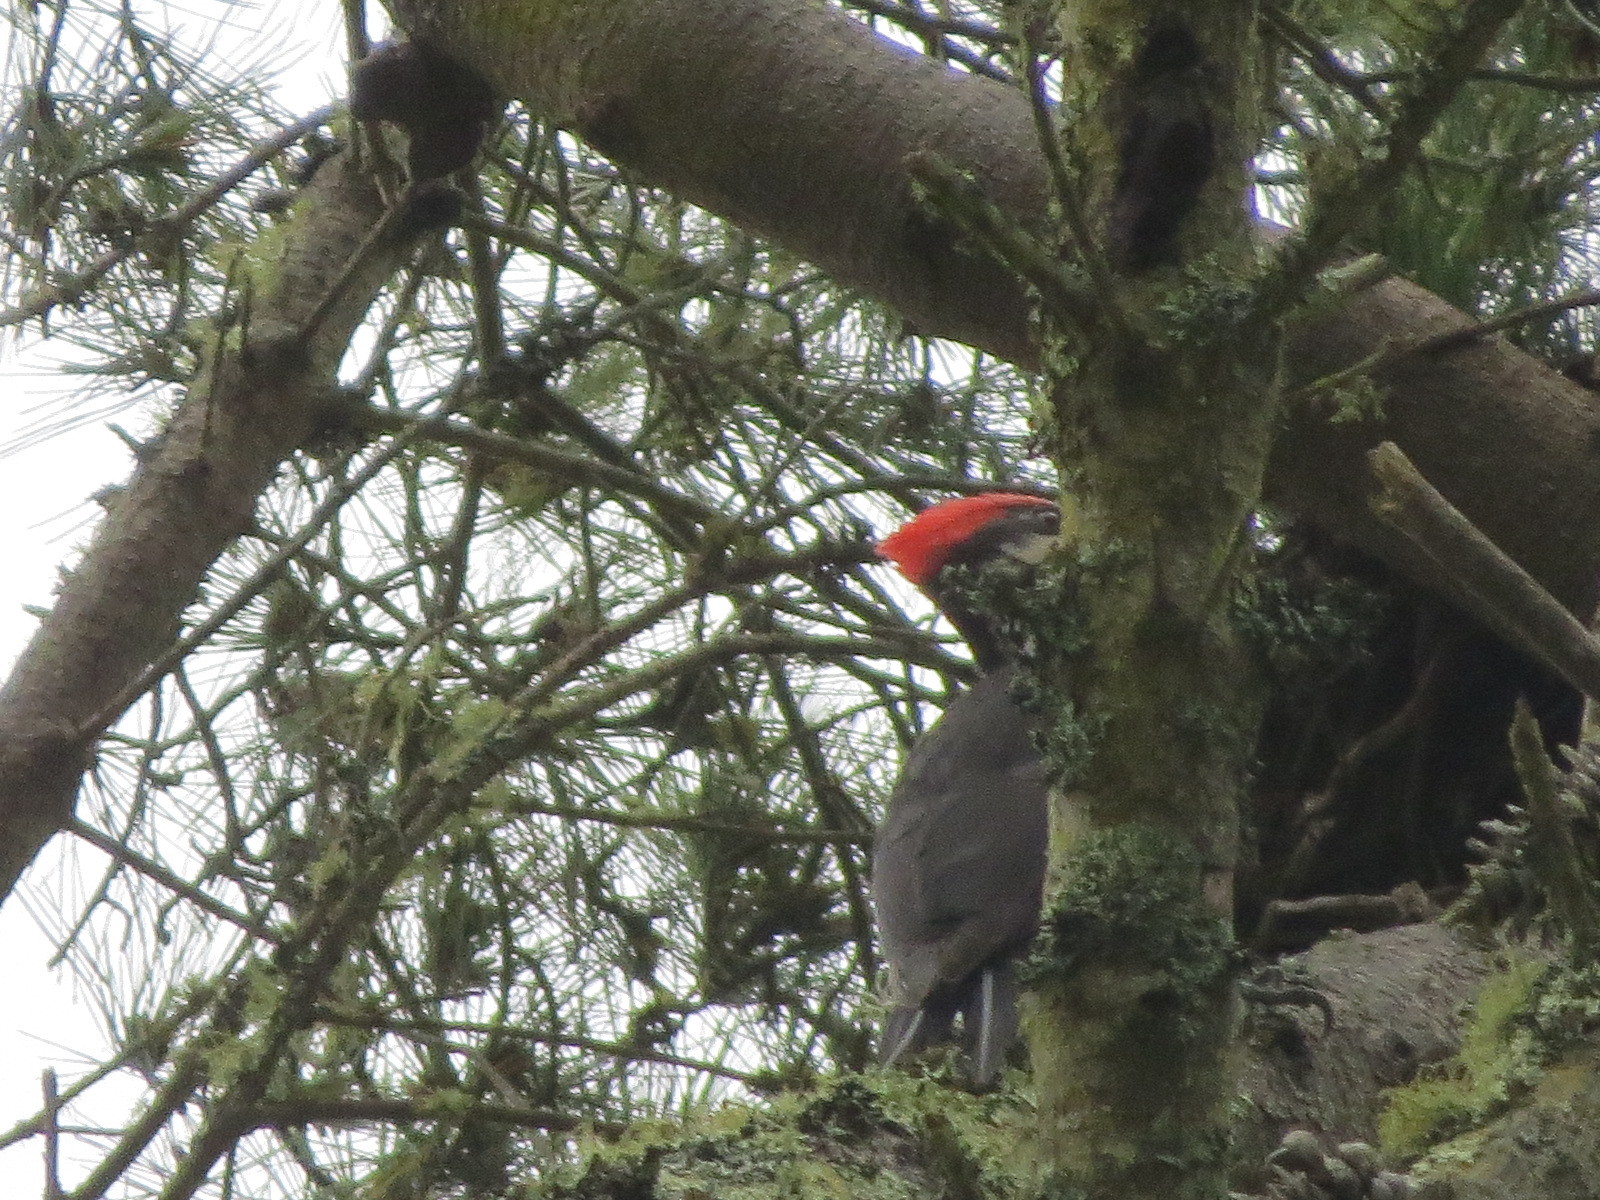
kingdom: Animalia
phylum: Chordata
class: Aves
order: Piciformes
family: Picidae
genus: Dryocopus
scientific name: Dryocopus pileatus
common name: Pileated woodpecker
